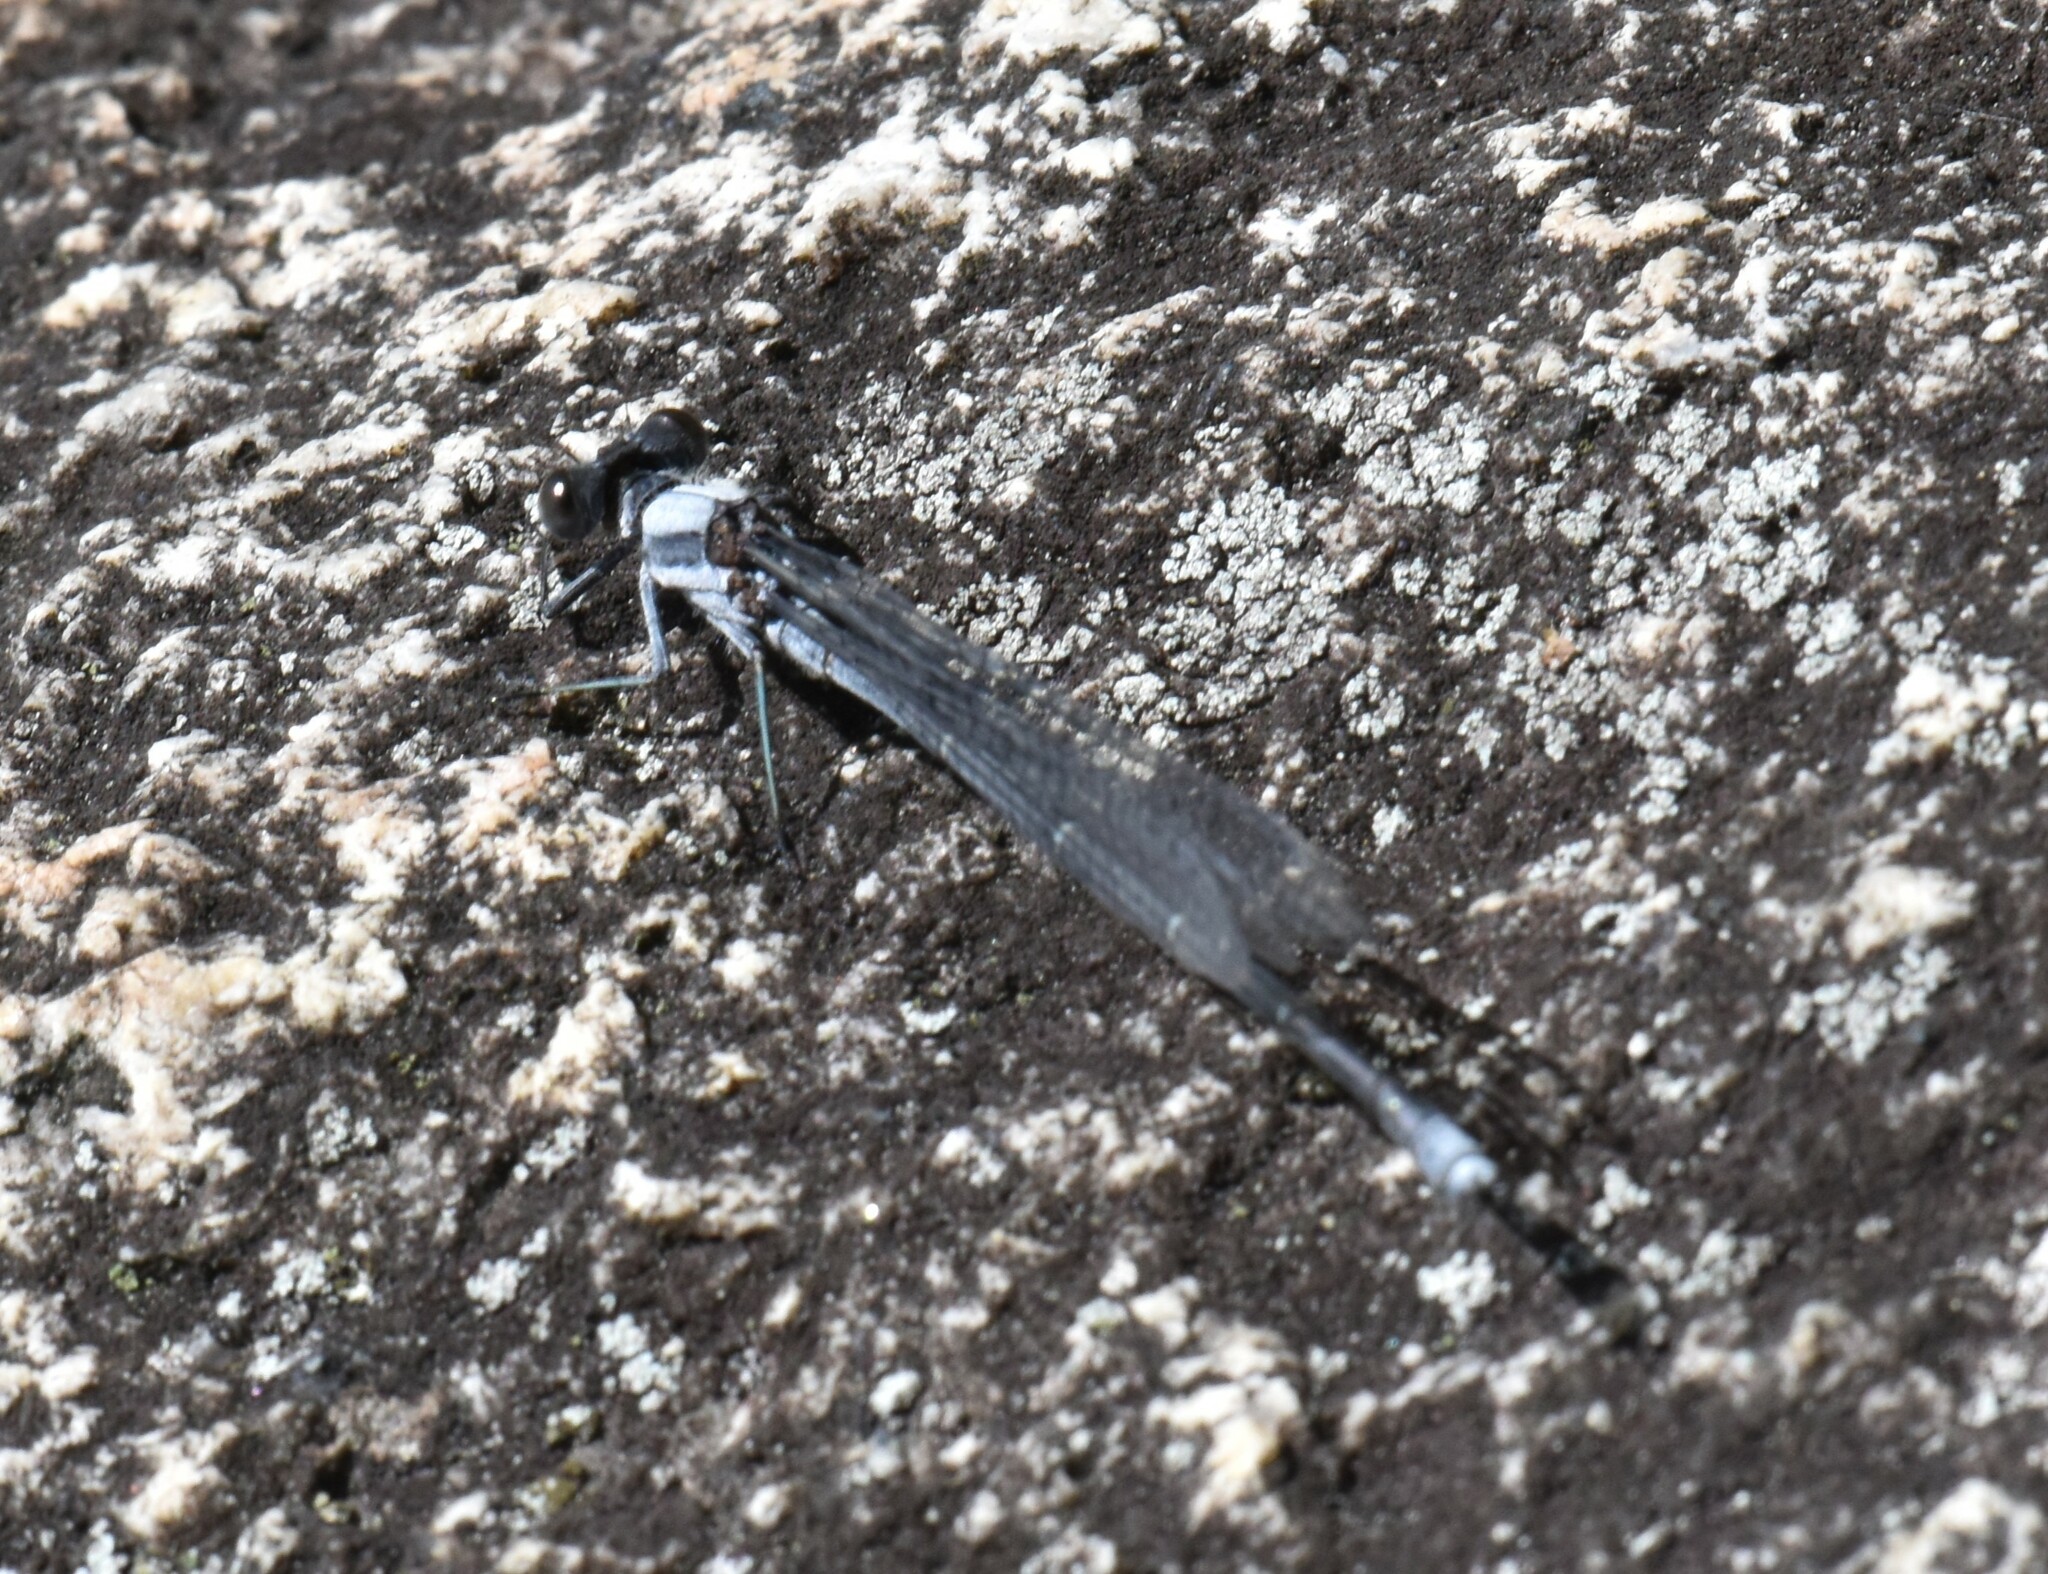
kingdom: Animalia
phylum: Arthropoda
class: Insecta
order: Odonata
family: Coenagrionidae
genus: Argia
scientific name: Argia moesta
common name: Powdered dancer
